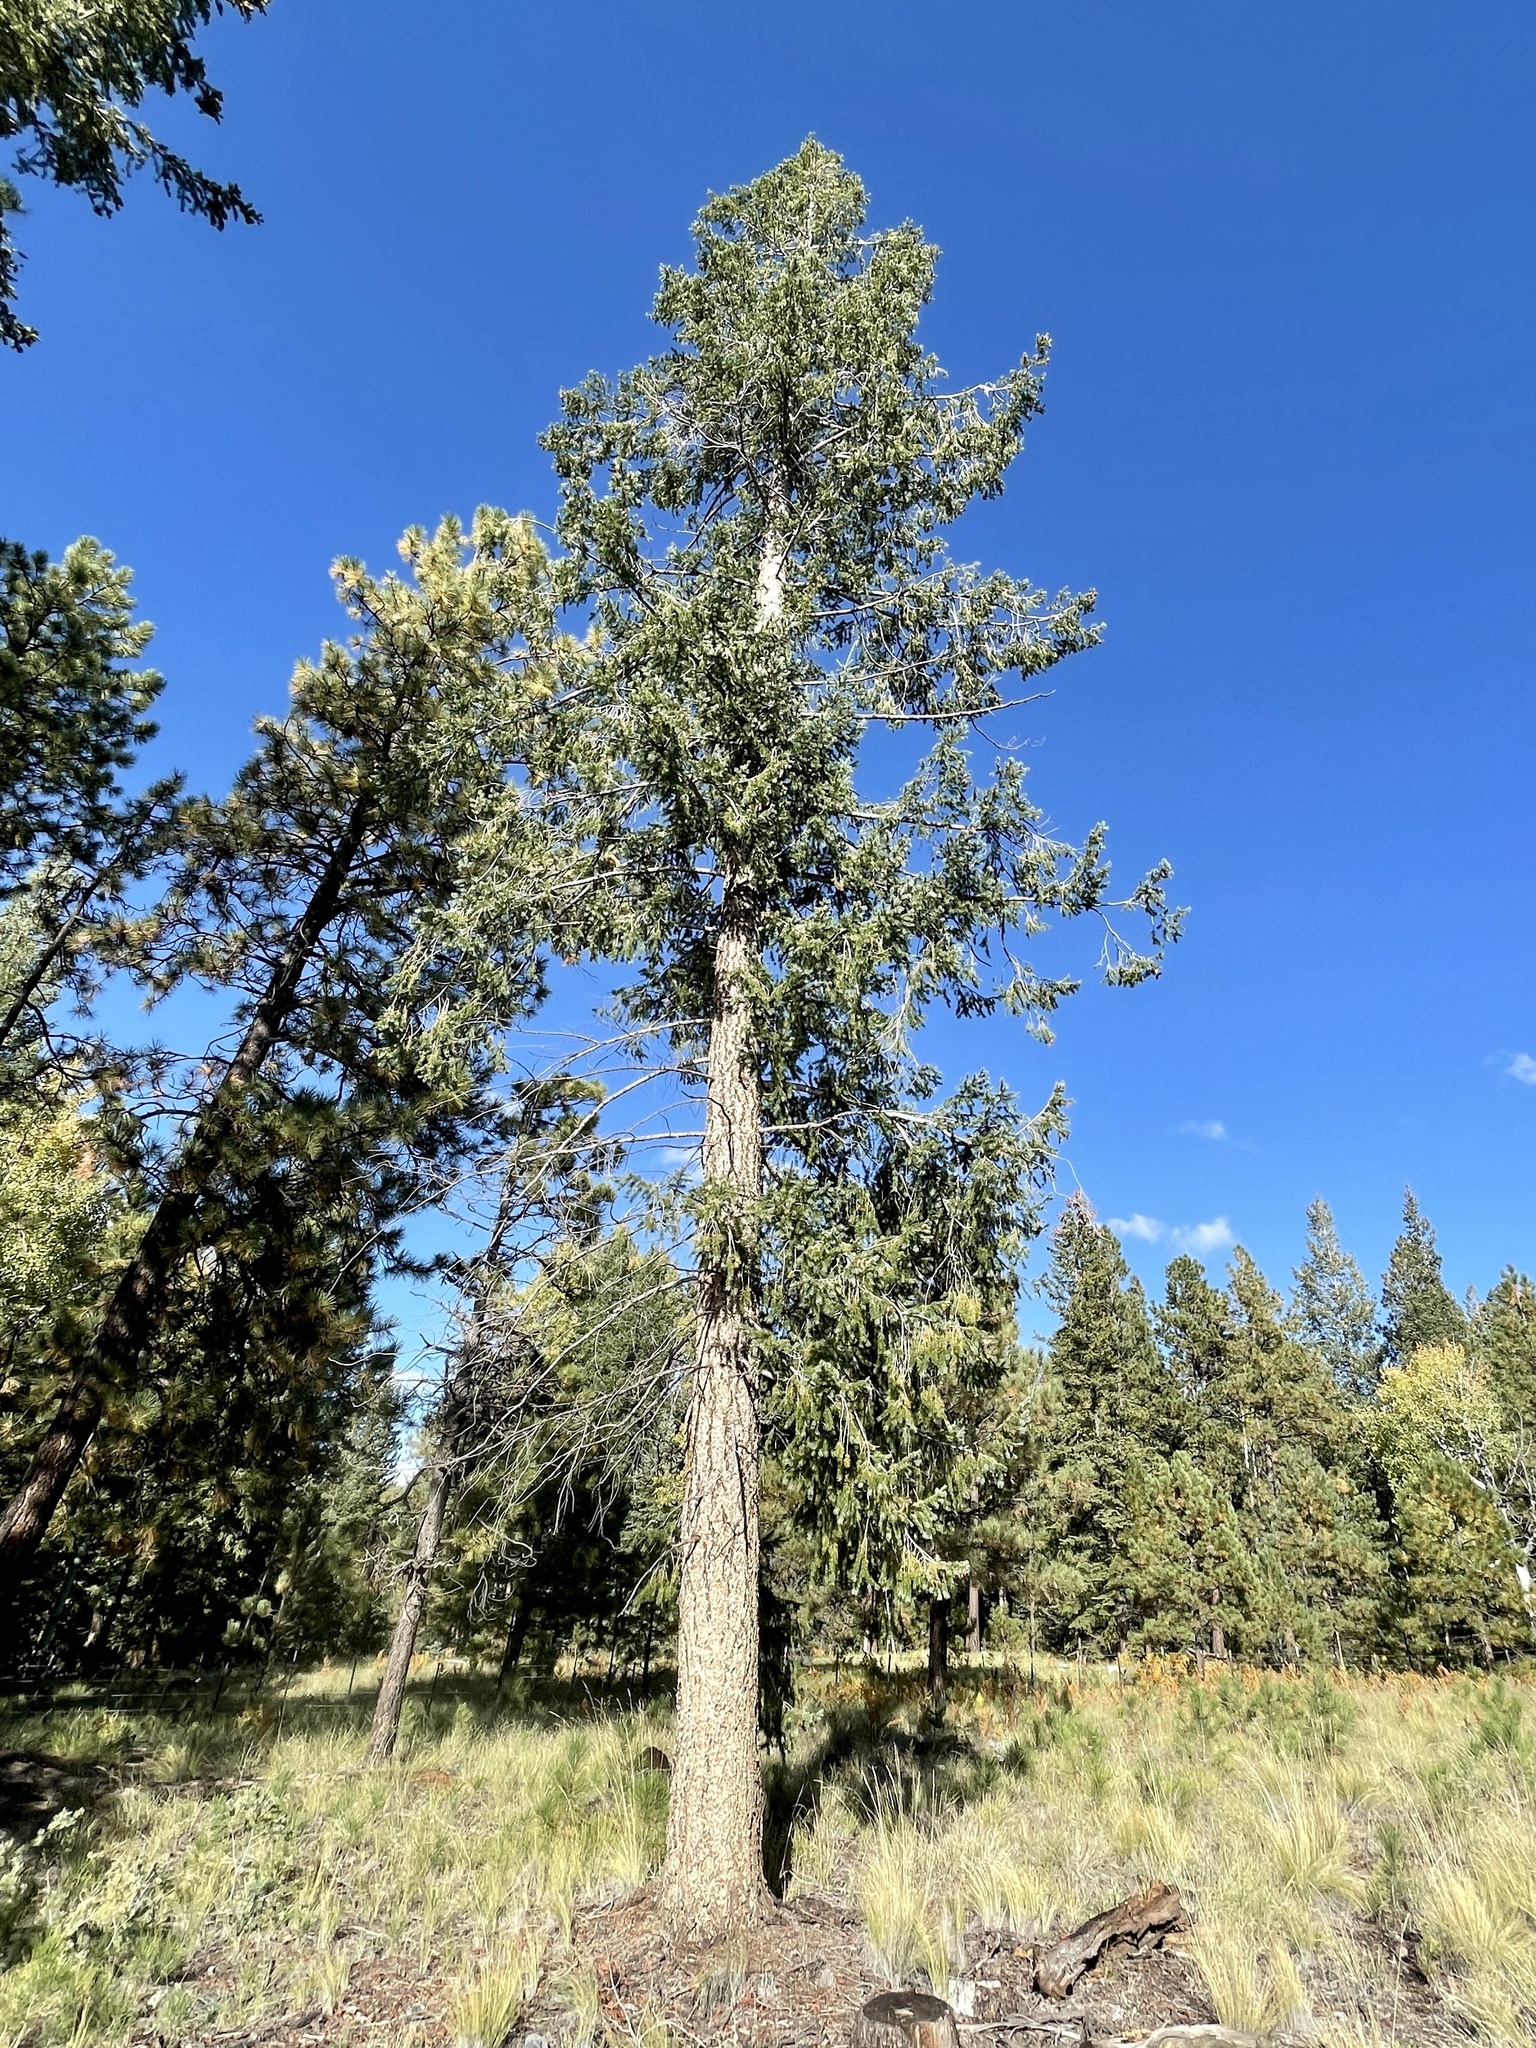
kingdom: Plantae
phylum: Tracheophyta
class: Pinopsida
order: Pinales
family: Pinaceae
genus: Pseudotsuga
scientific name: Pseudotsuga menziesii
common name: Douglas fir
